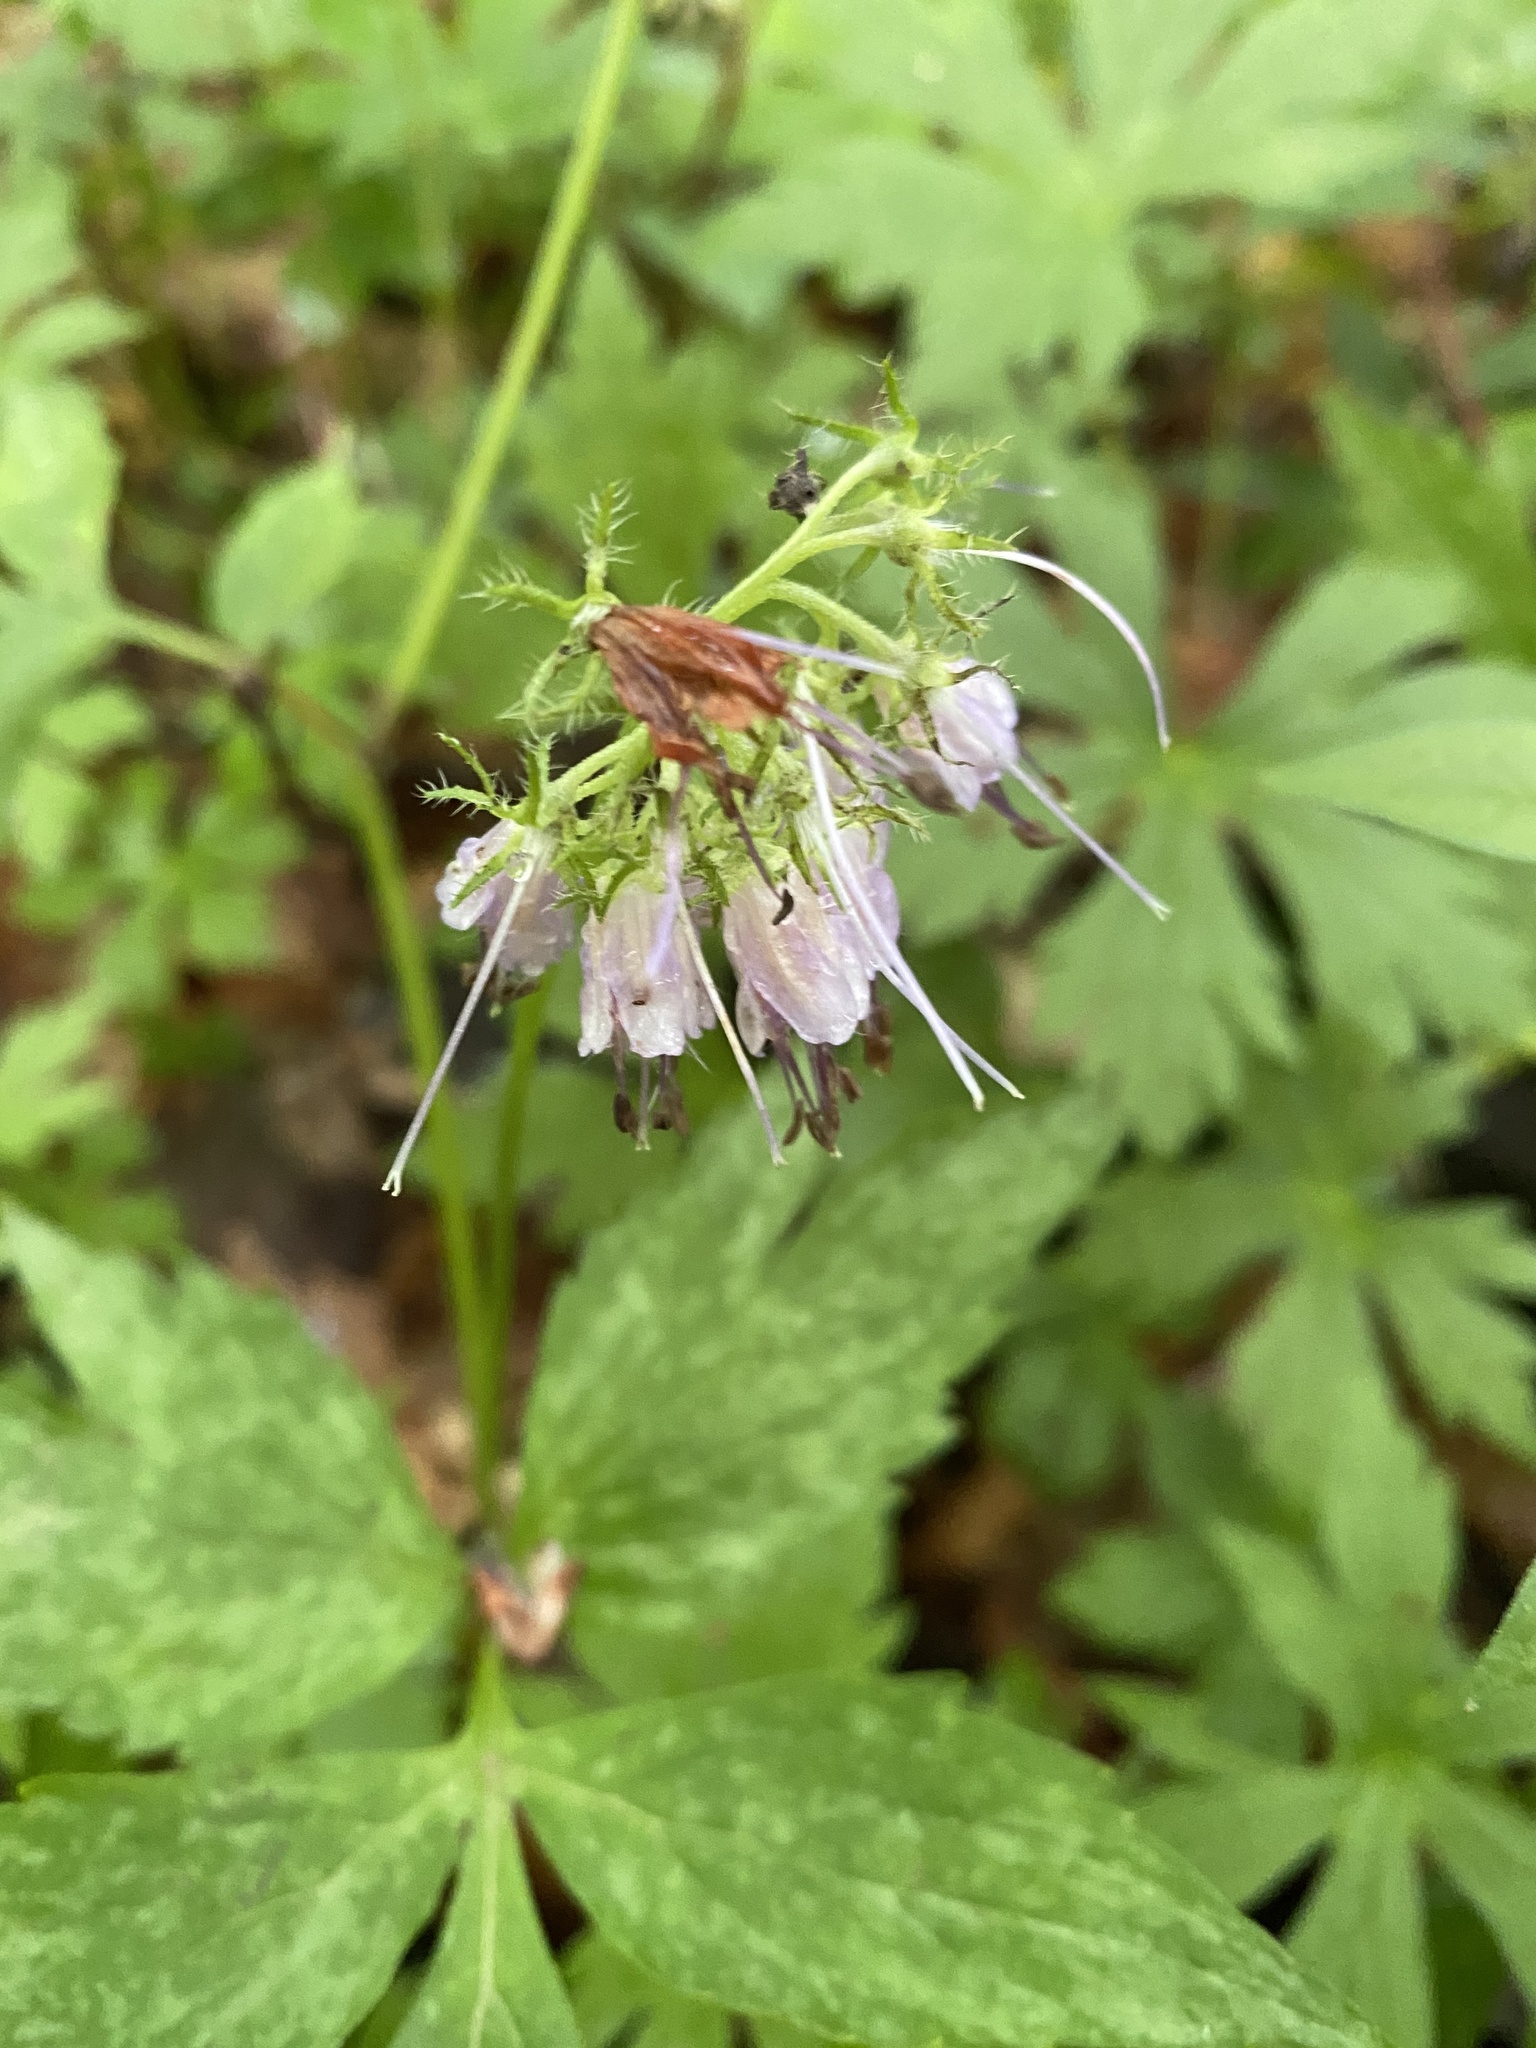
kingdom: Plantae
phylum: Tracheophyta
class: Magnoliopsida
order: Boraginales
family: Hydrophyllaceae
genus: Hydrophyllum
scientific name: Hydrophyllum virginianum
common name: Virginia waterleaf
